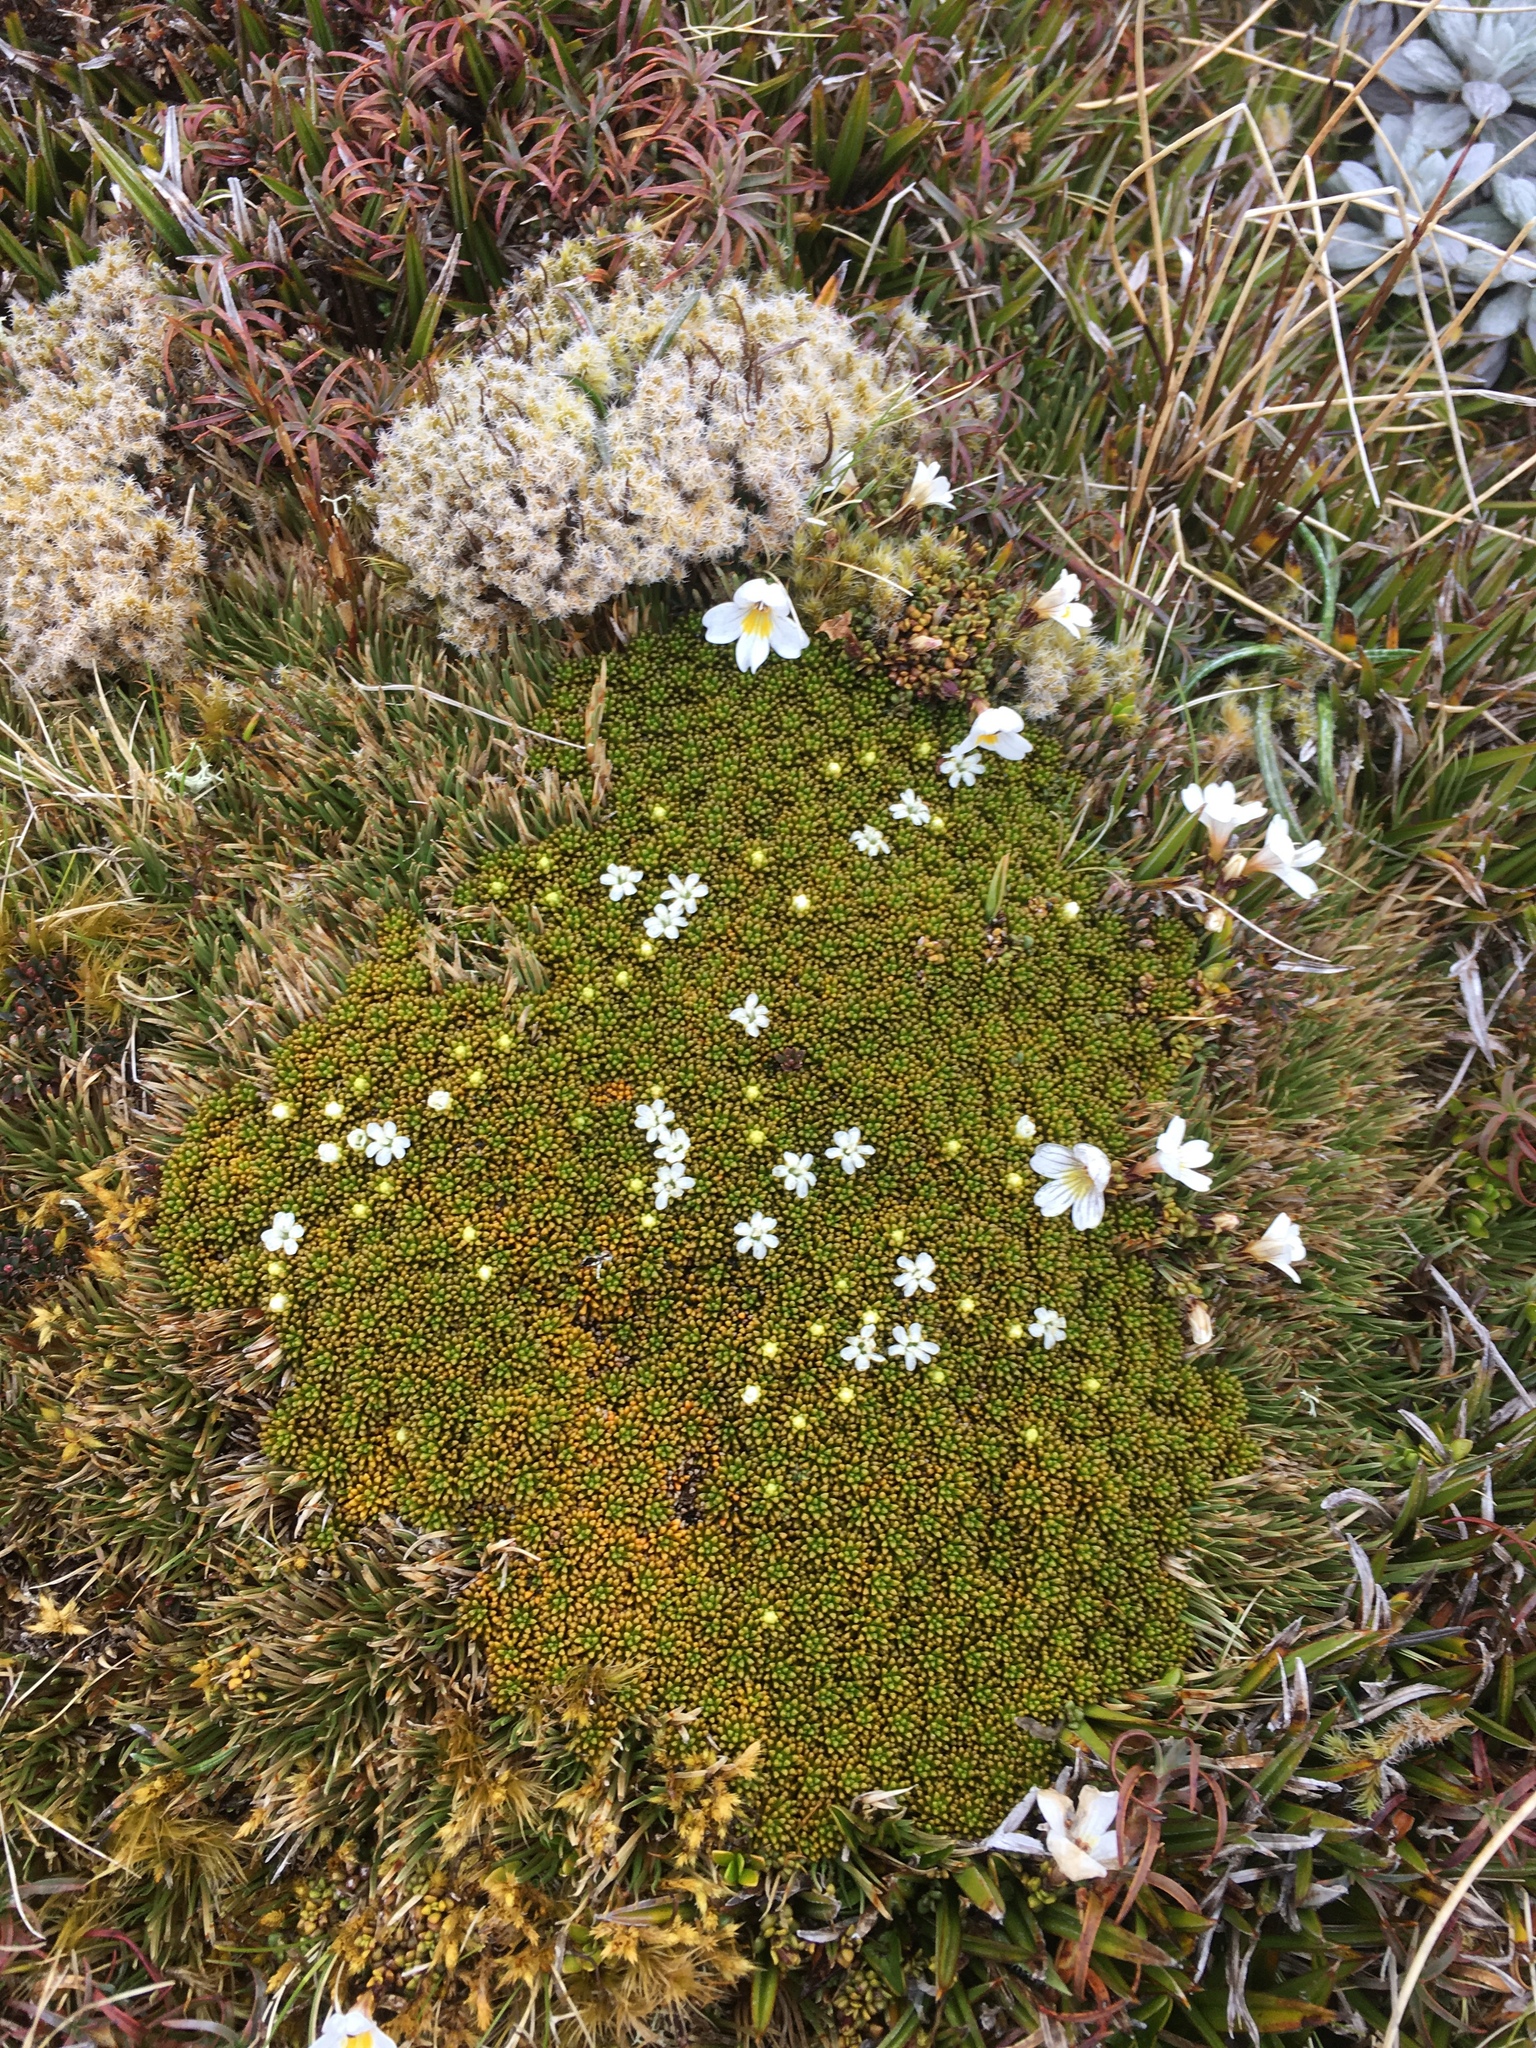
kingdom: Plantae
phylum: Tracheophyta
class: Magnoliopsida
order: Asterales
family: Stylidiaceae
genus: Phyllachne
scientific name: Phyllachne colensoi
